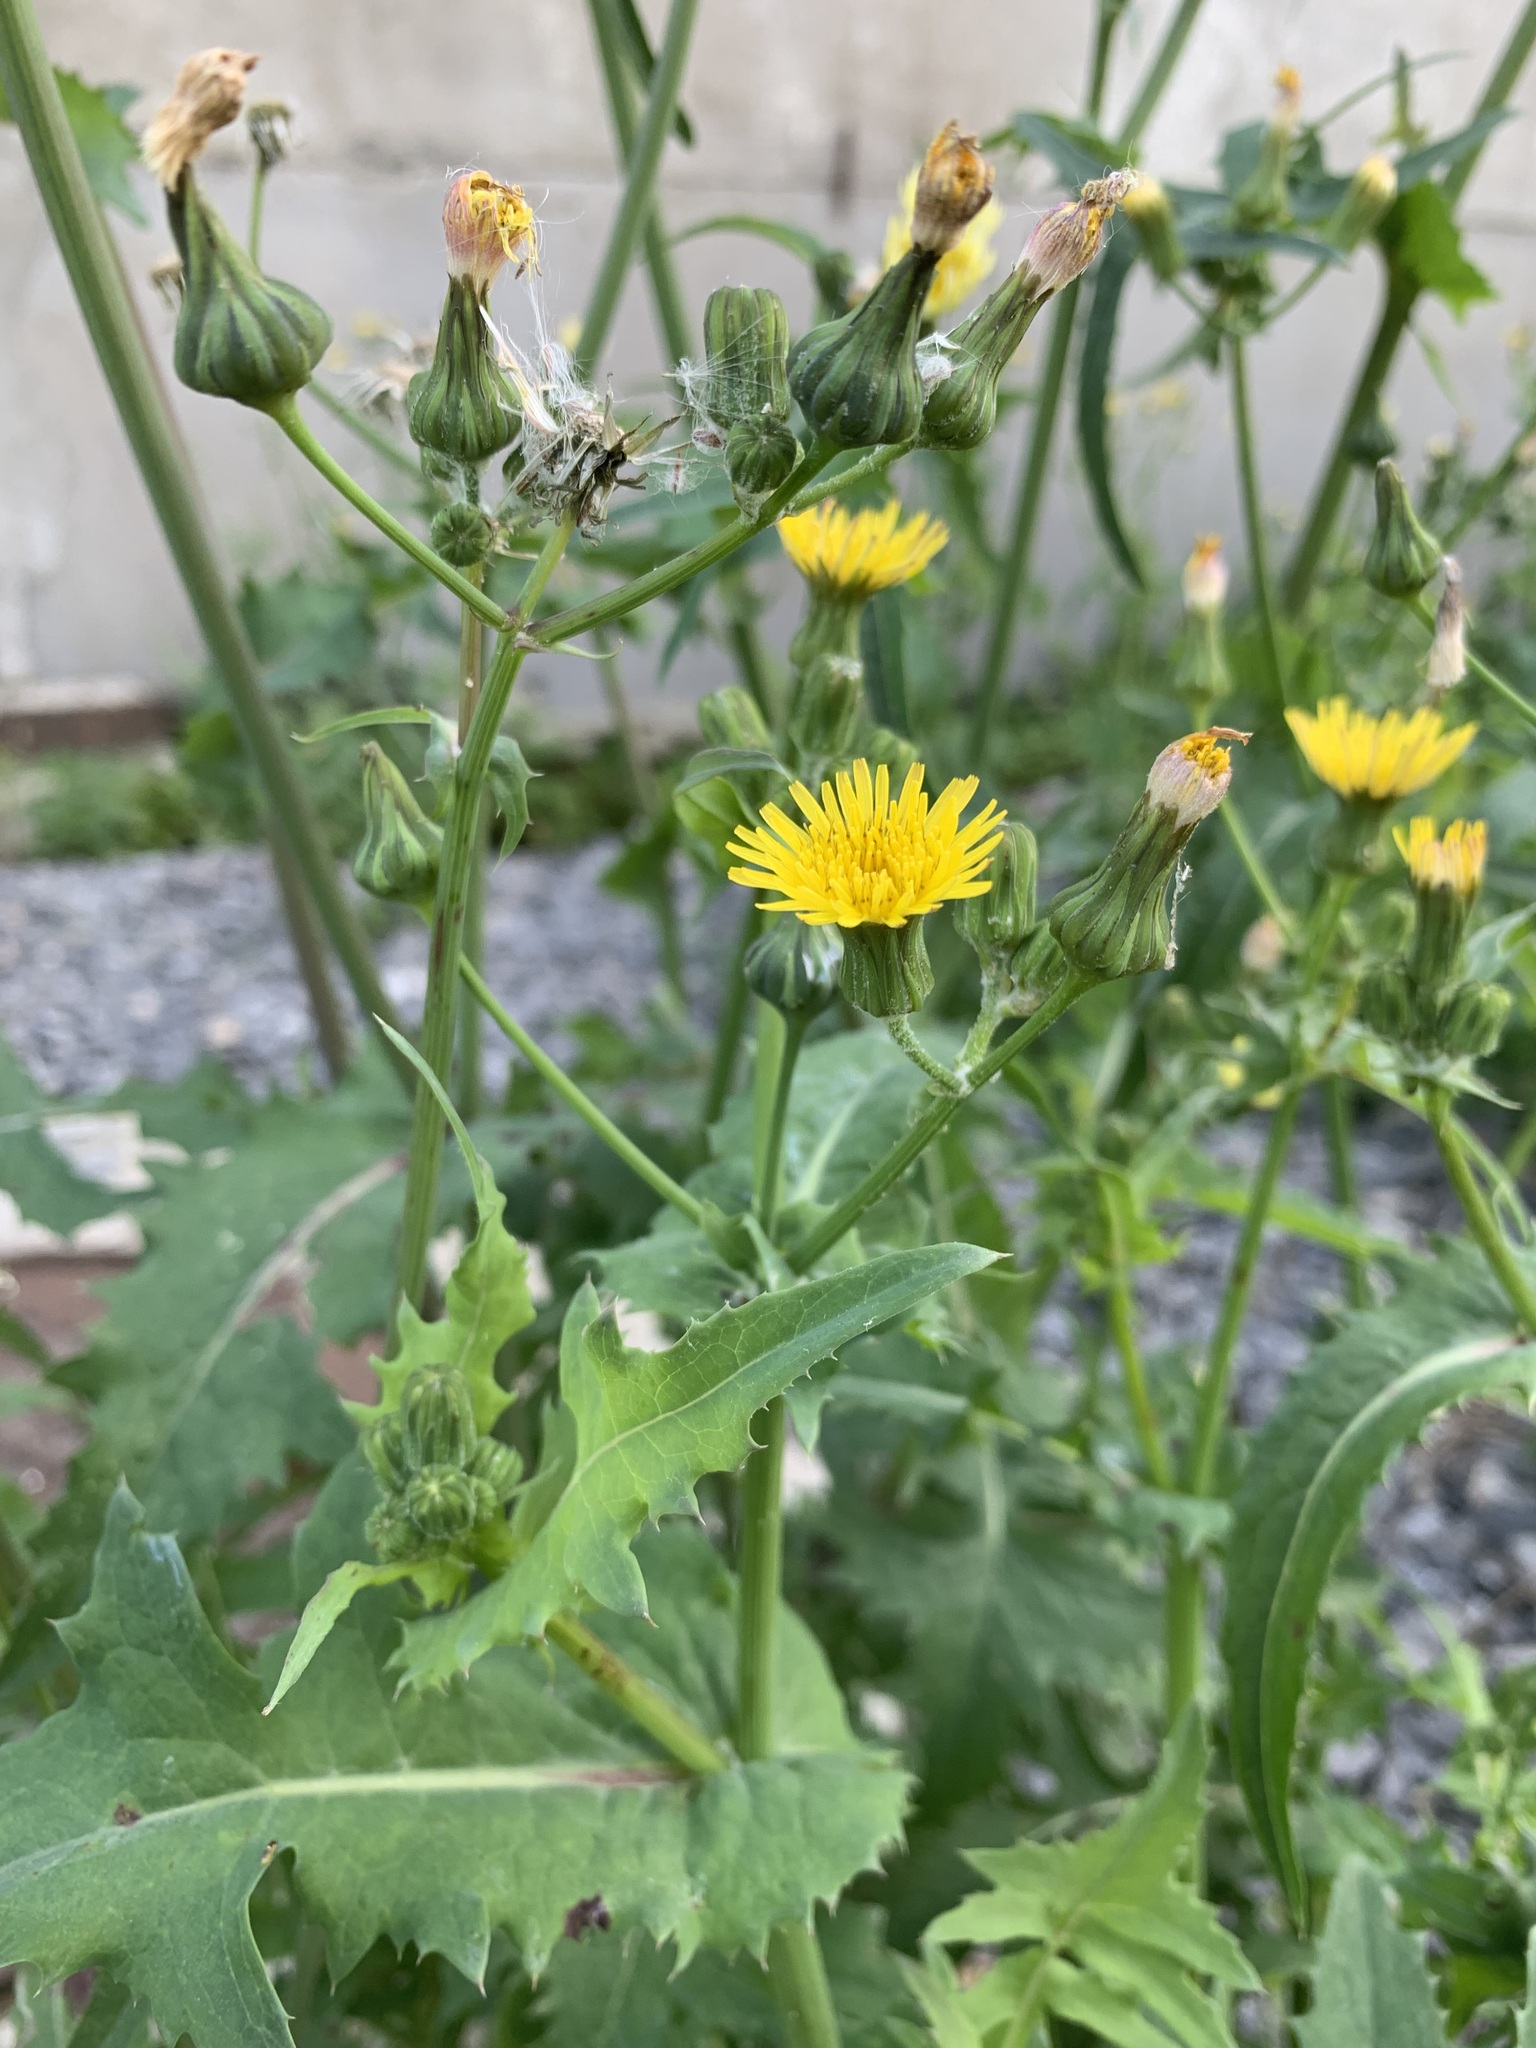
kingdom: Plantae
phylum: Tracheophyta
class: Magnoliopsida
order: Asterales
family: Asteraceae
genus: Sonchus
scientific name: Sonchus oleraceus
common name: Common sowthistle
